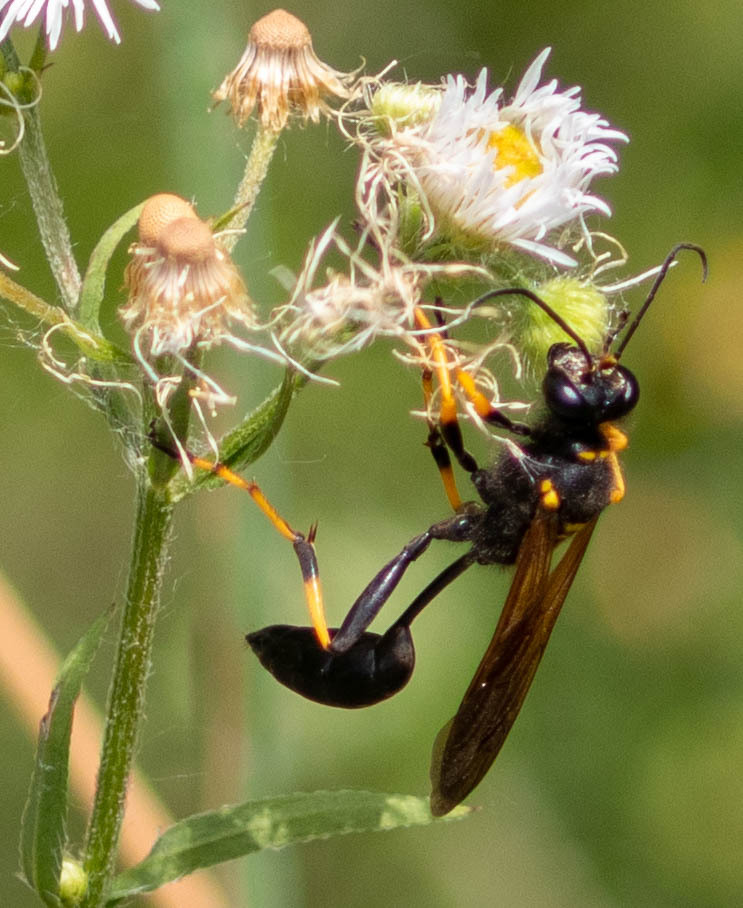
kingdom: Animalia
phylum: Arthropoda
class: Insecta
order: Hymenoptera
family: Sphecidae
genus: Sceliphron
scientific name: Sceliphron caementarium
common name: Mud dauber
